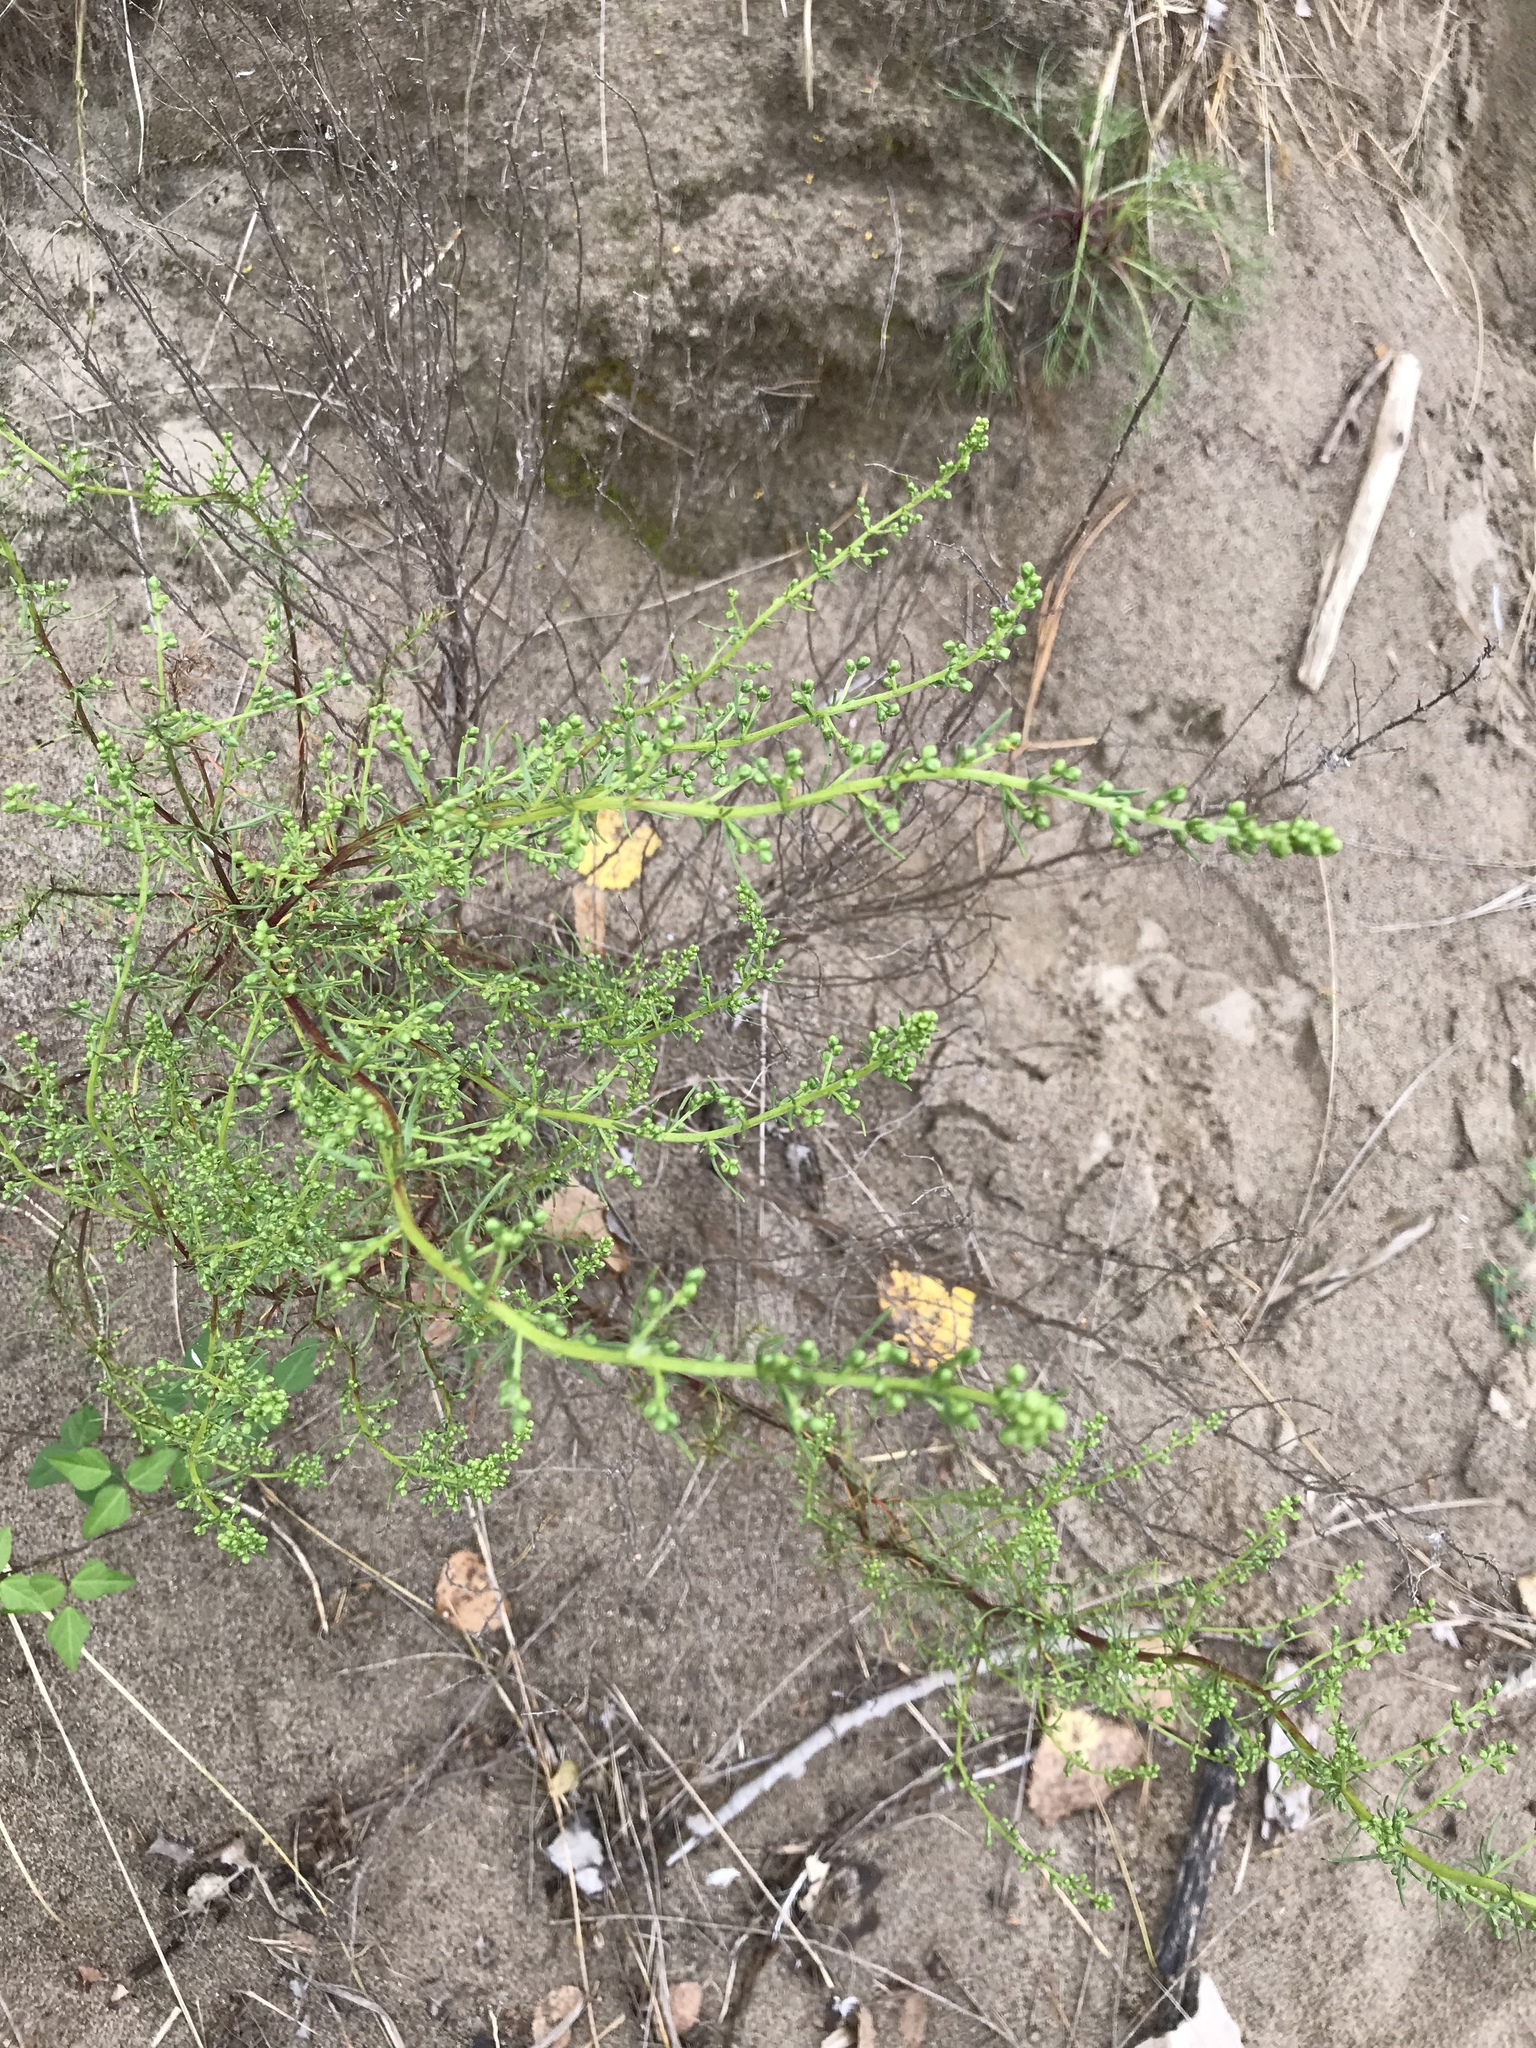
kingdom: Plantae
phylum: Tracheophyta
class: Magnoliopsida
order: Brassicales
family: Brassicaceae
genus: Cakile
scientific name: Cakile edentula
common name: American sea rocket
